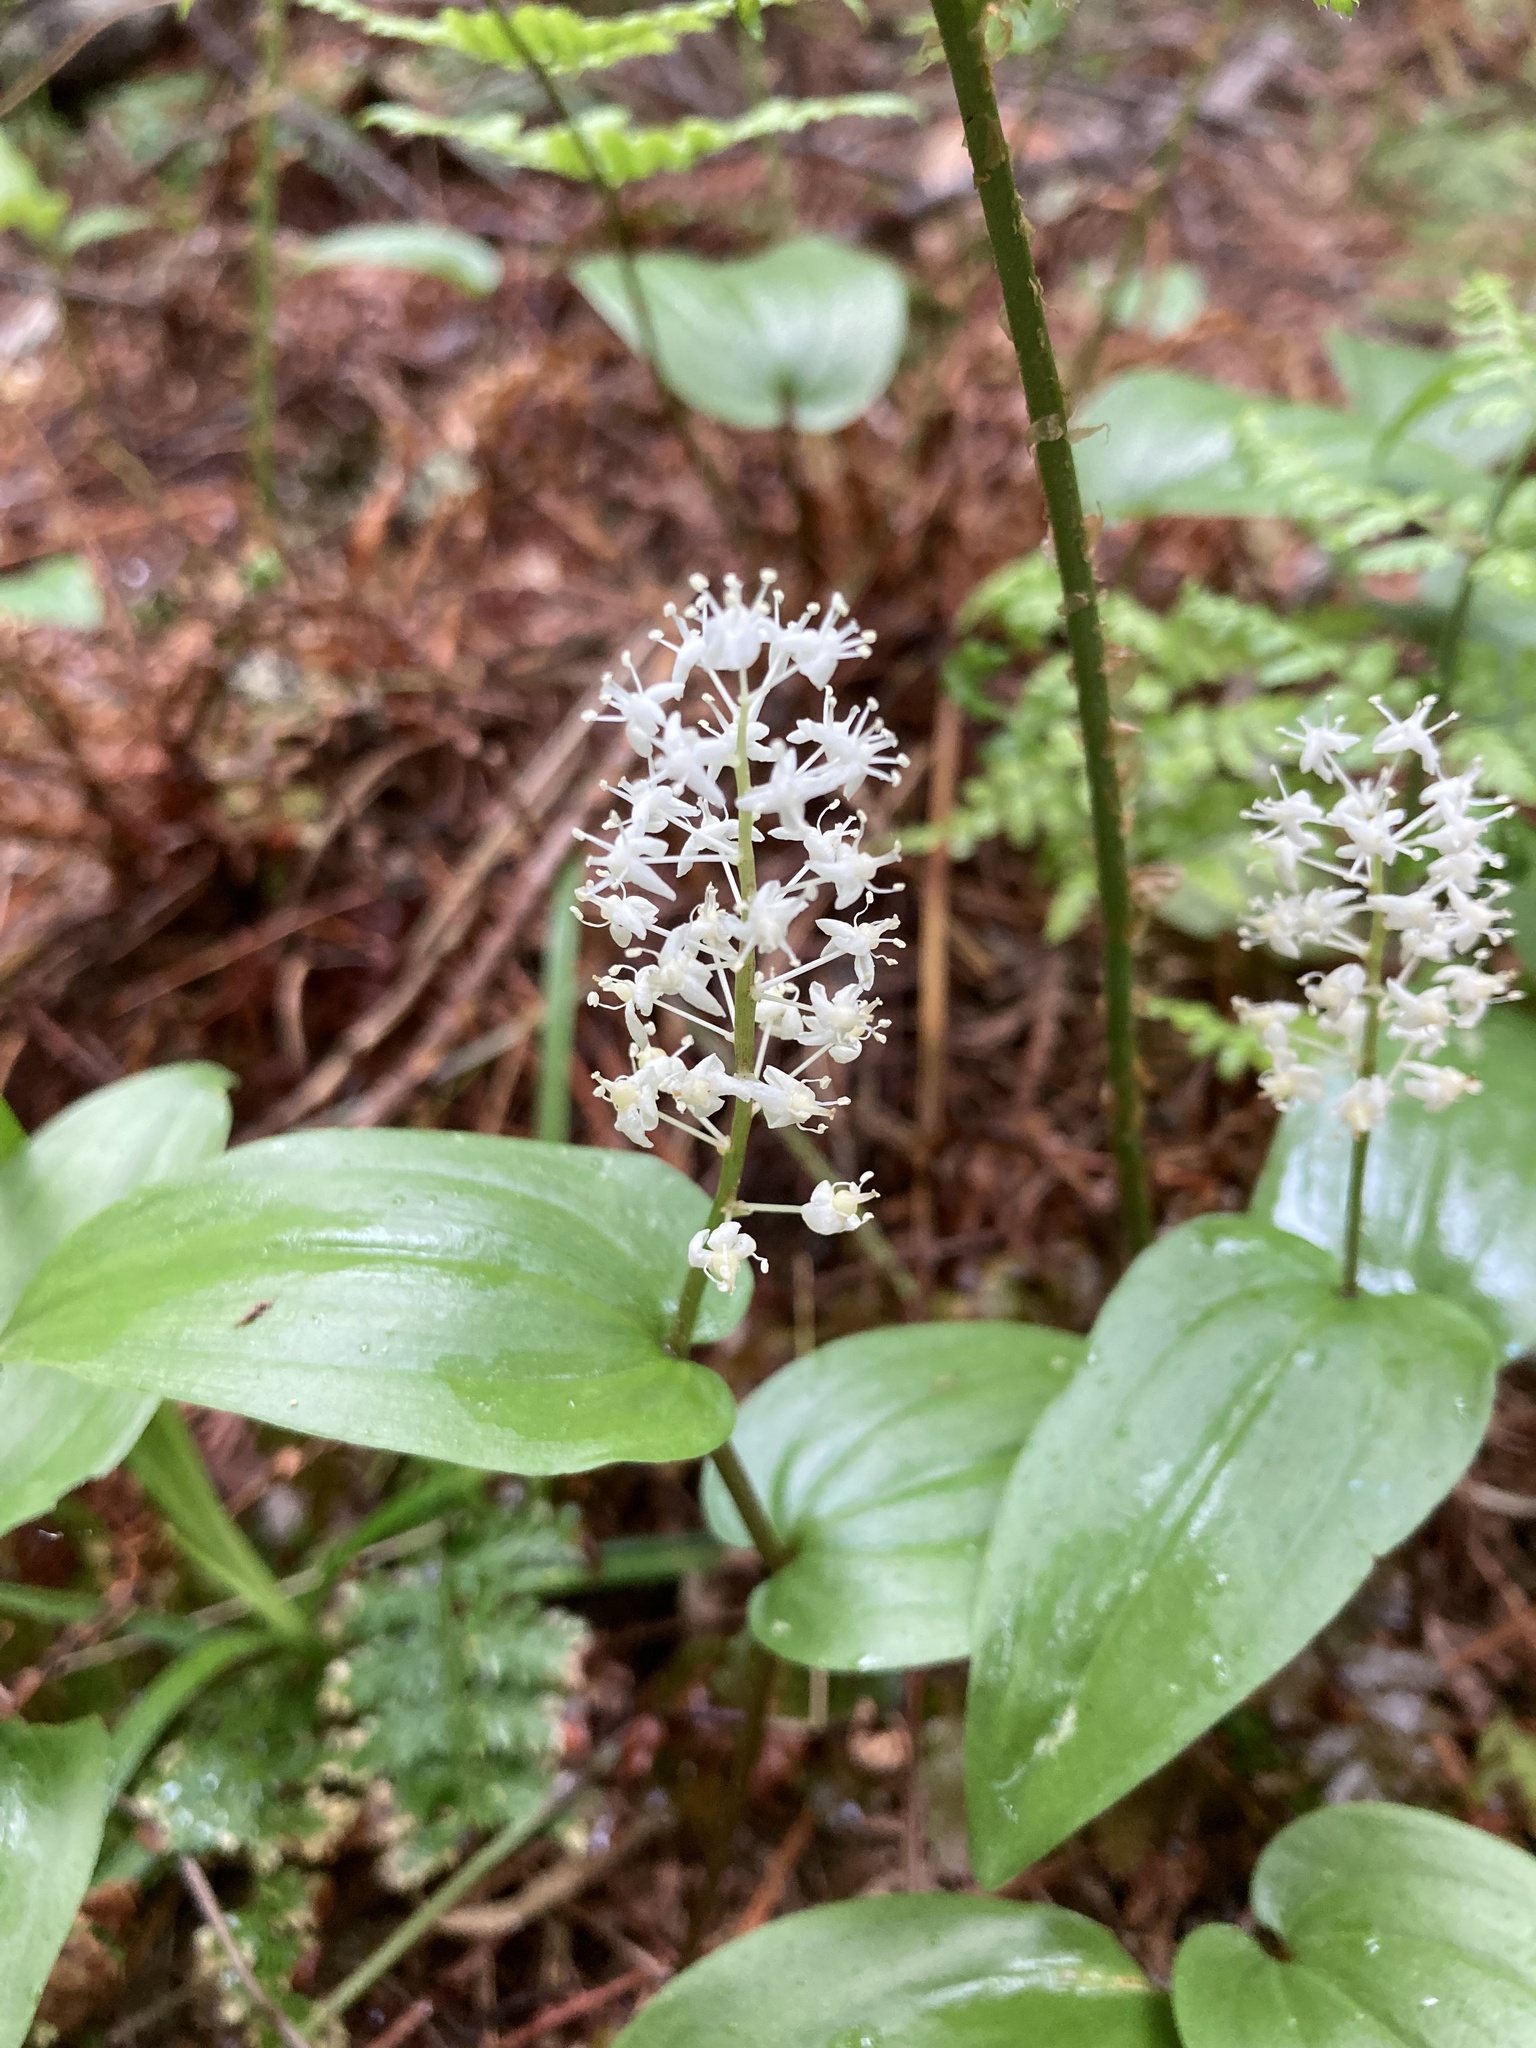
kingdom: Plantae
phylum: Tracheophyta
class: Liliopsida
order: Asparagales
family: Asparagaceae
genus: Maianthemum
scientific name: Maianthemum canadense
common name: False lily-of-the-valley
